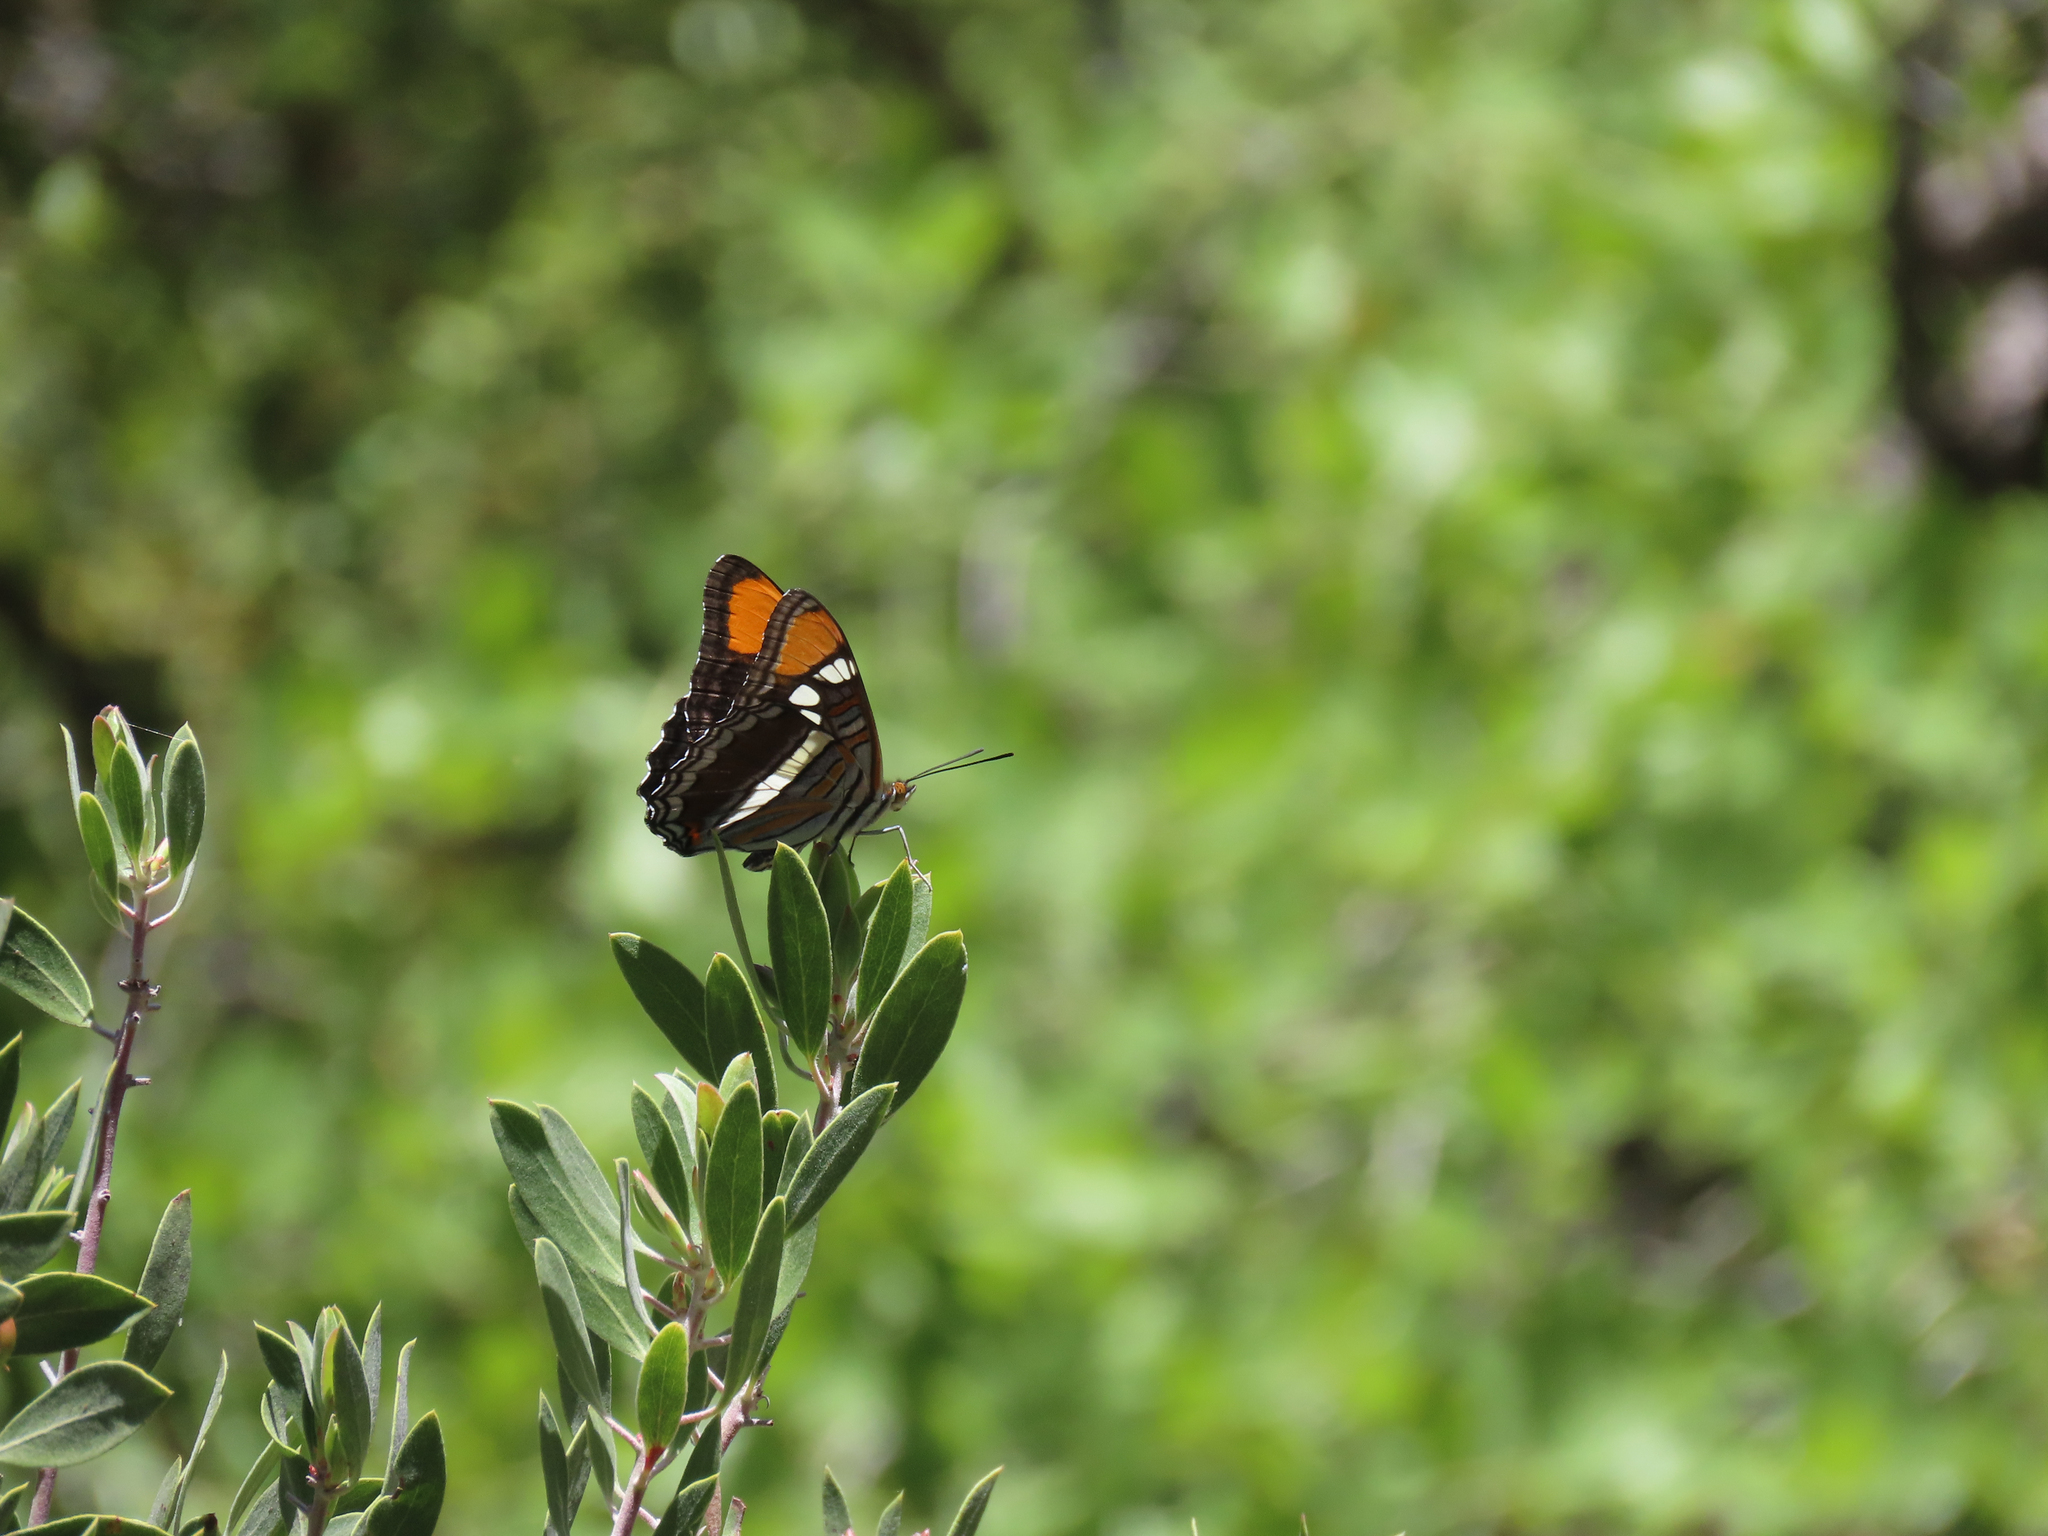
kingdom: Animalia
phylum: Arthropoda
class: Insecta
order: Lepidoptera
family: Nymphalidae
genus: Limenitis
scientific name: Limenitis bredowii
